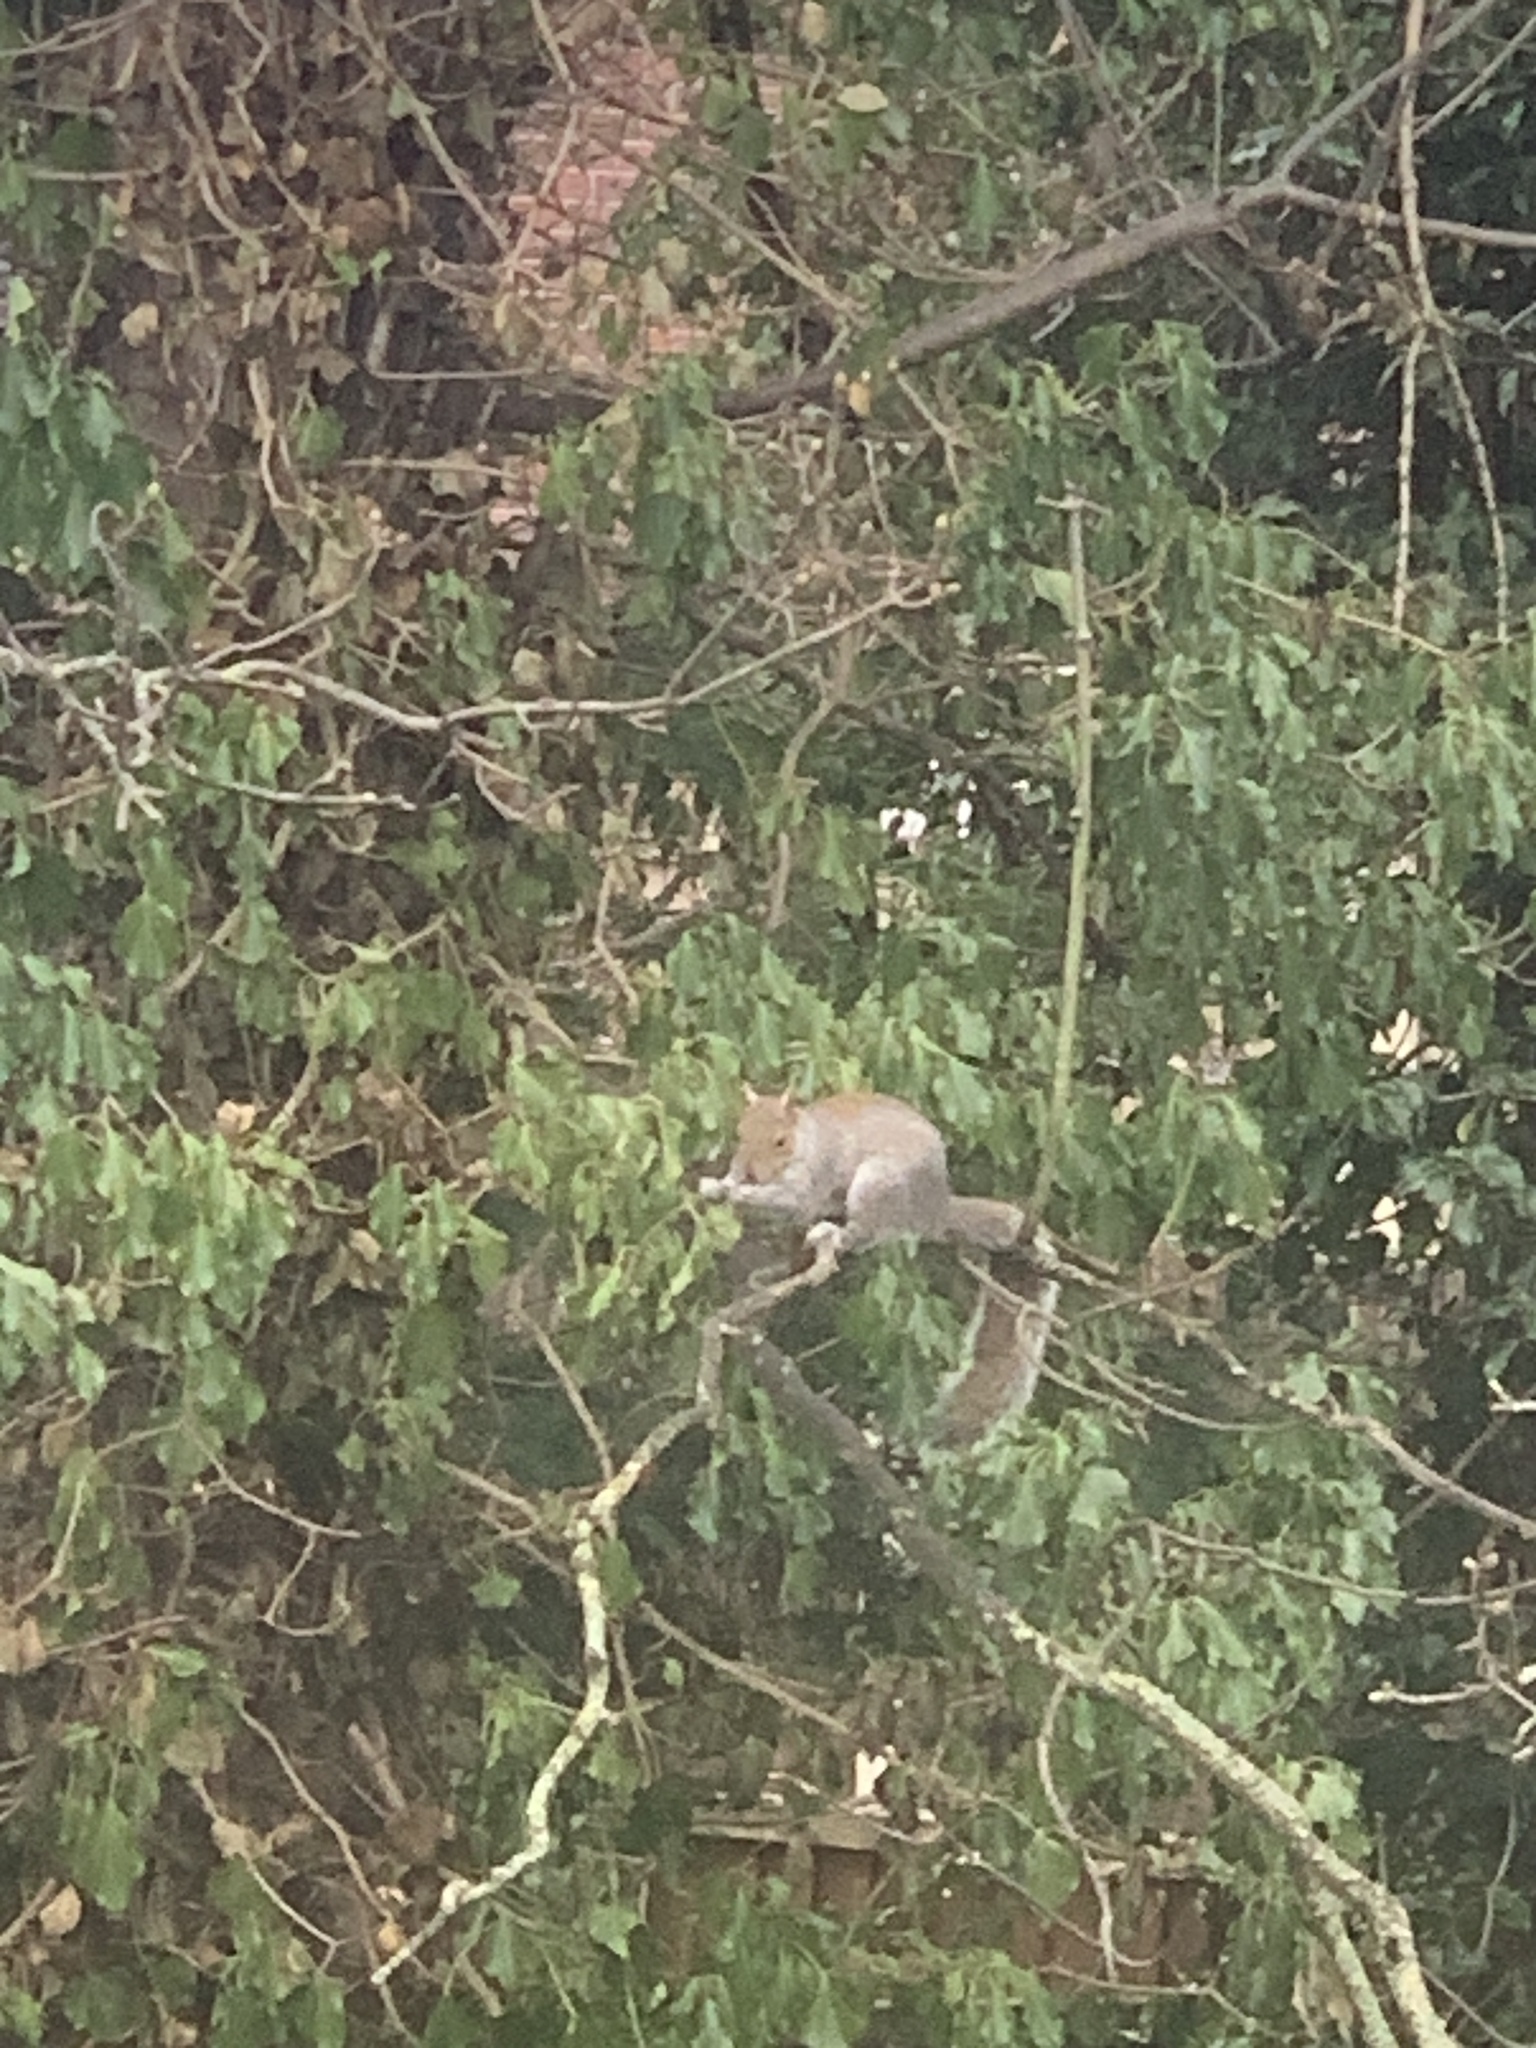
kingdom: Animalia
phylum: Chordata
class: Mammalia
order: Rodentia
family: Sciuridae
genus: Sciurus
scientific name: Sciurus carolinensis
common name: Eastern gray squirrel
